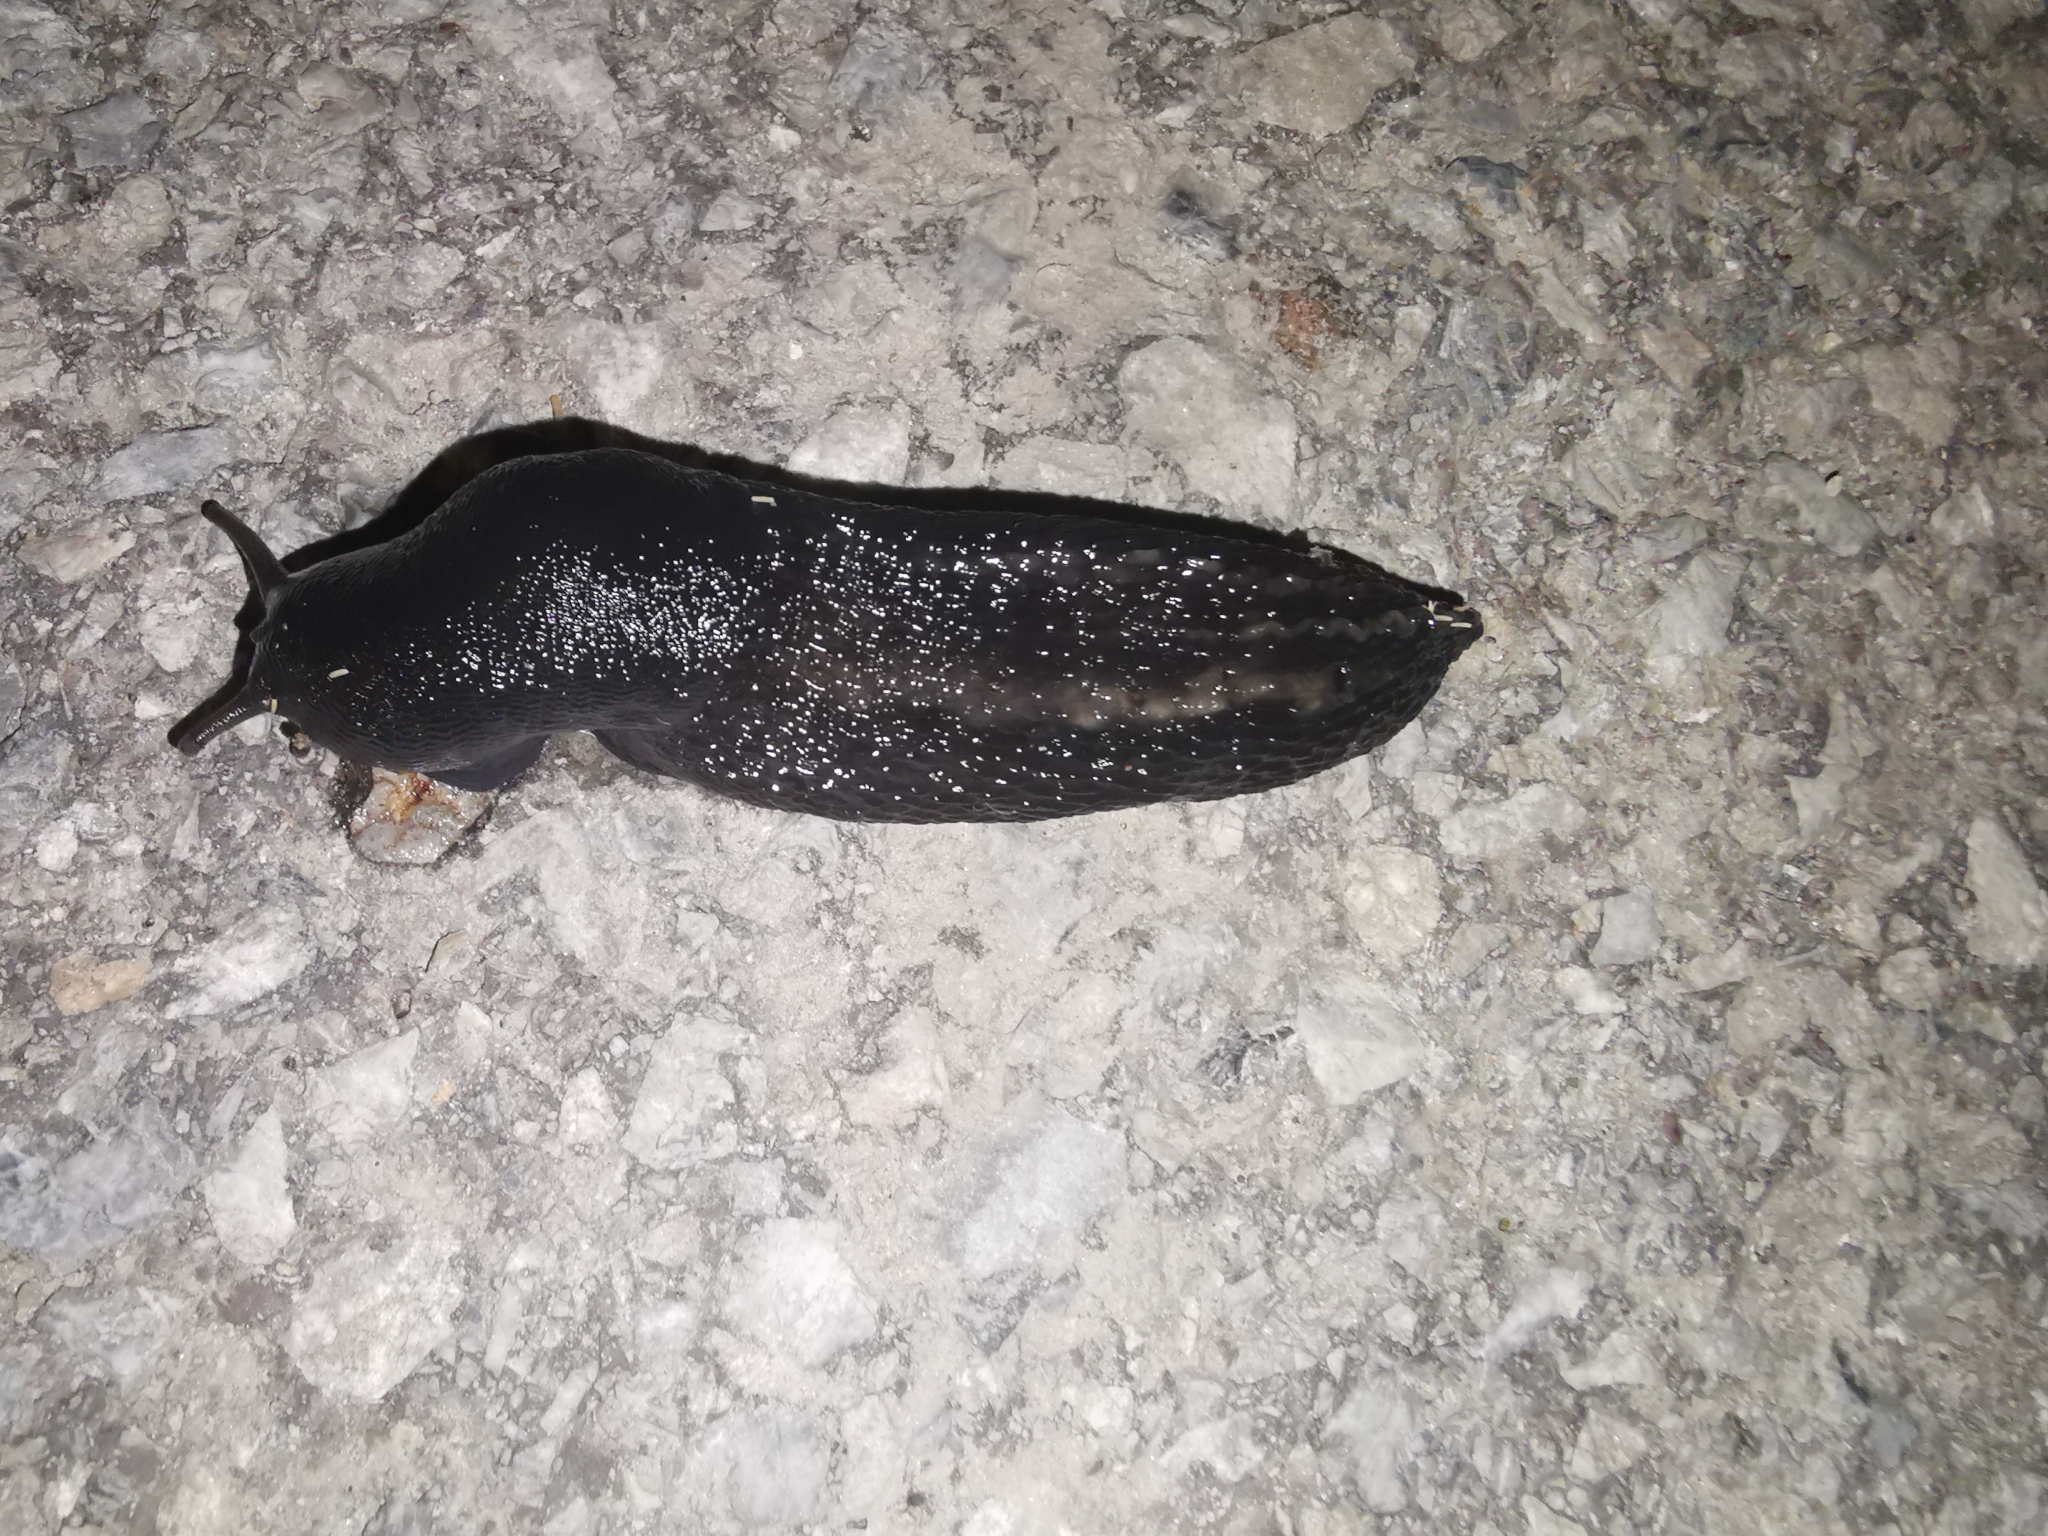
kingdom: Animalia
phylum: Mollusca
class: Gastropoda
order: Stylommatophora
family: Limacidae
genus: Limax
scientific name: Limax cinereoniger
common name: Ash-black slug
